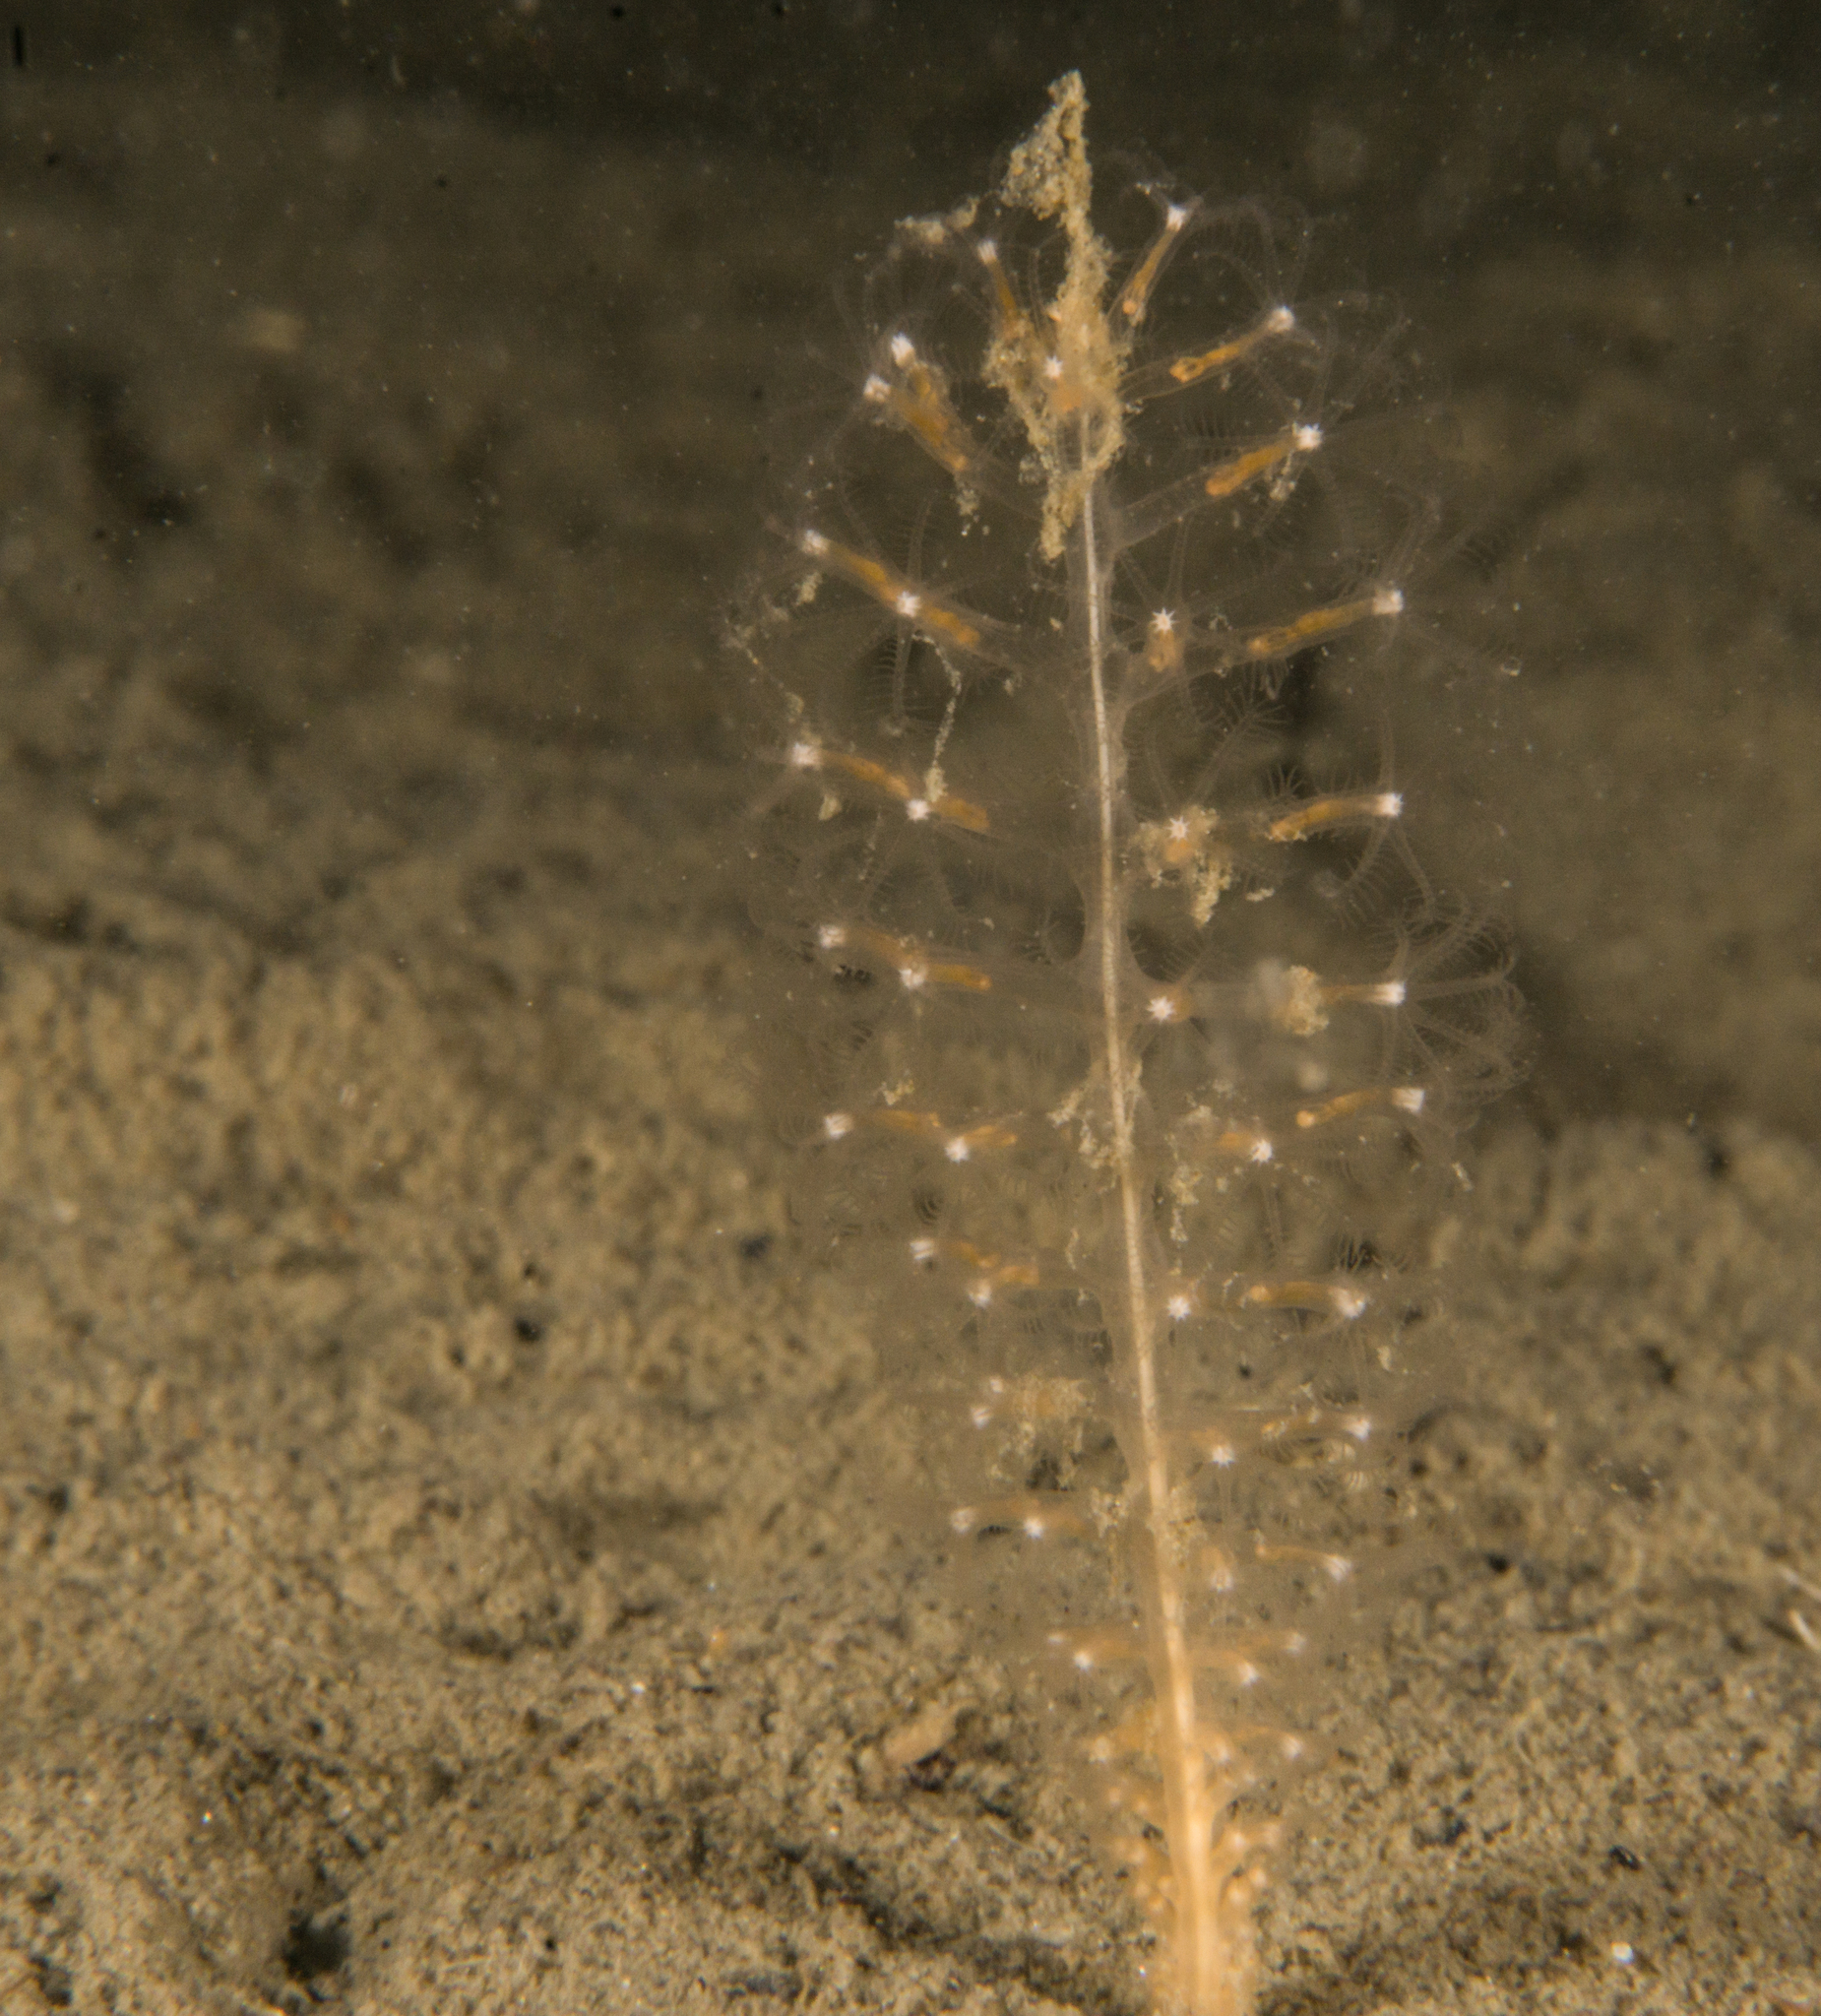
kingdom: Animalia
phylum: Cnidaria
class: Anthozoa
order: Scleralcyonacea
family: Virgulariidae
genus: Virgularia
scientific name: Virgularia mirabilis
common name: Slender sea pen
